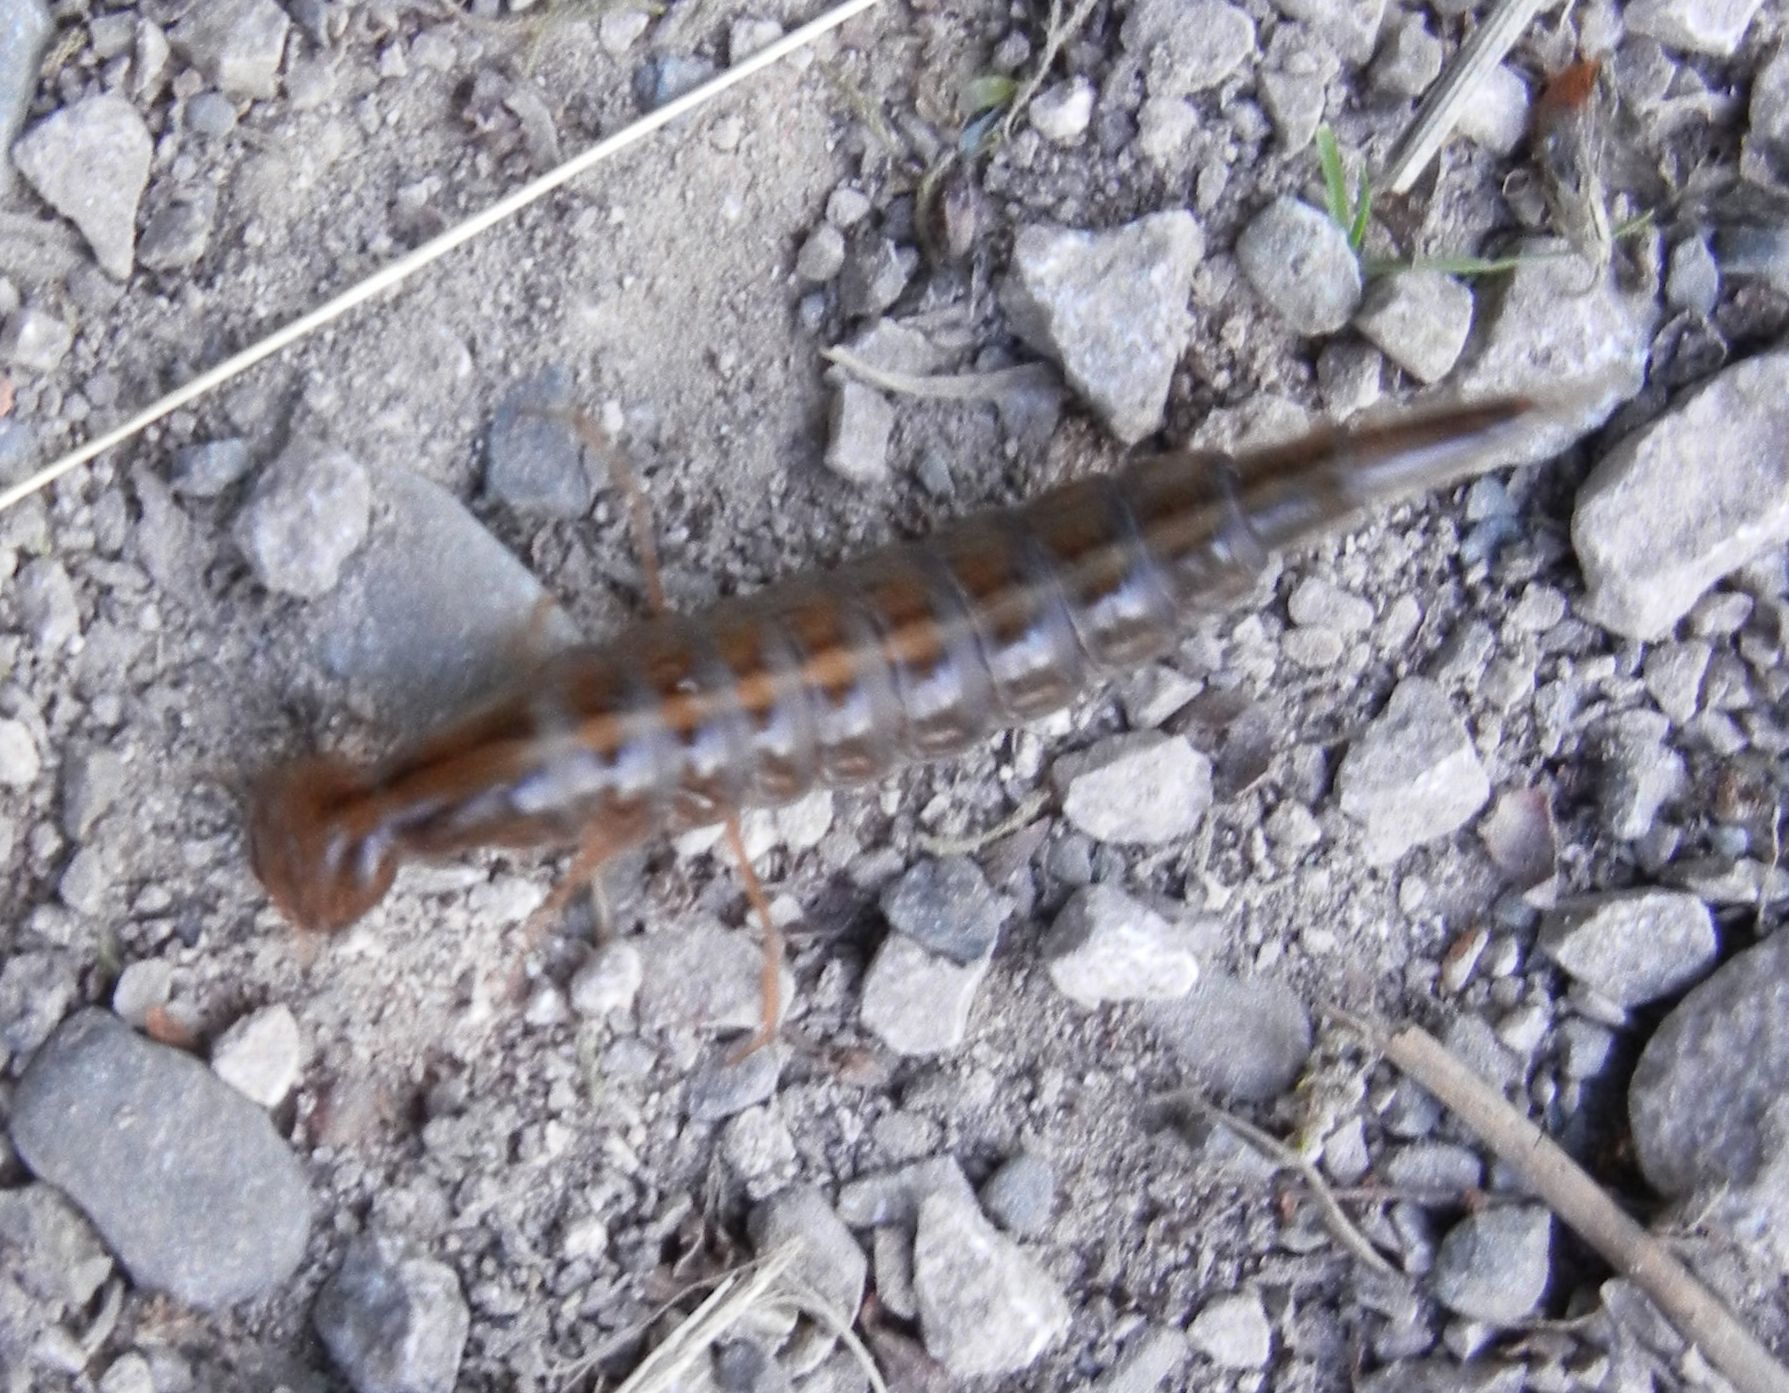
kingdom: Animalia
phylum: Arthropoda
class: Insecta
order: Coleoptera
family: Dytiscidae
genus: Dytiscus
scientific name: Dytiscus
